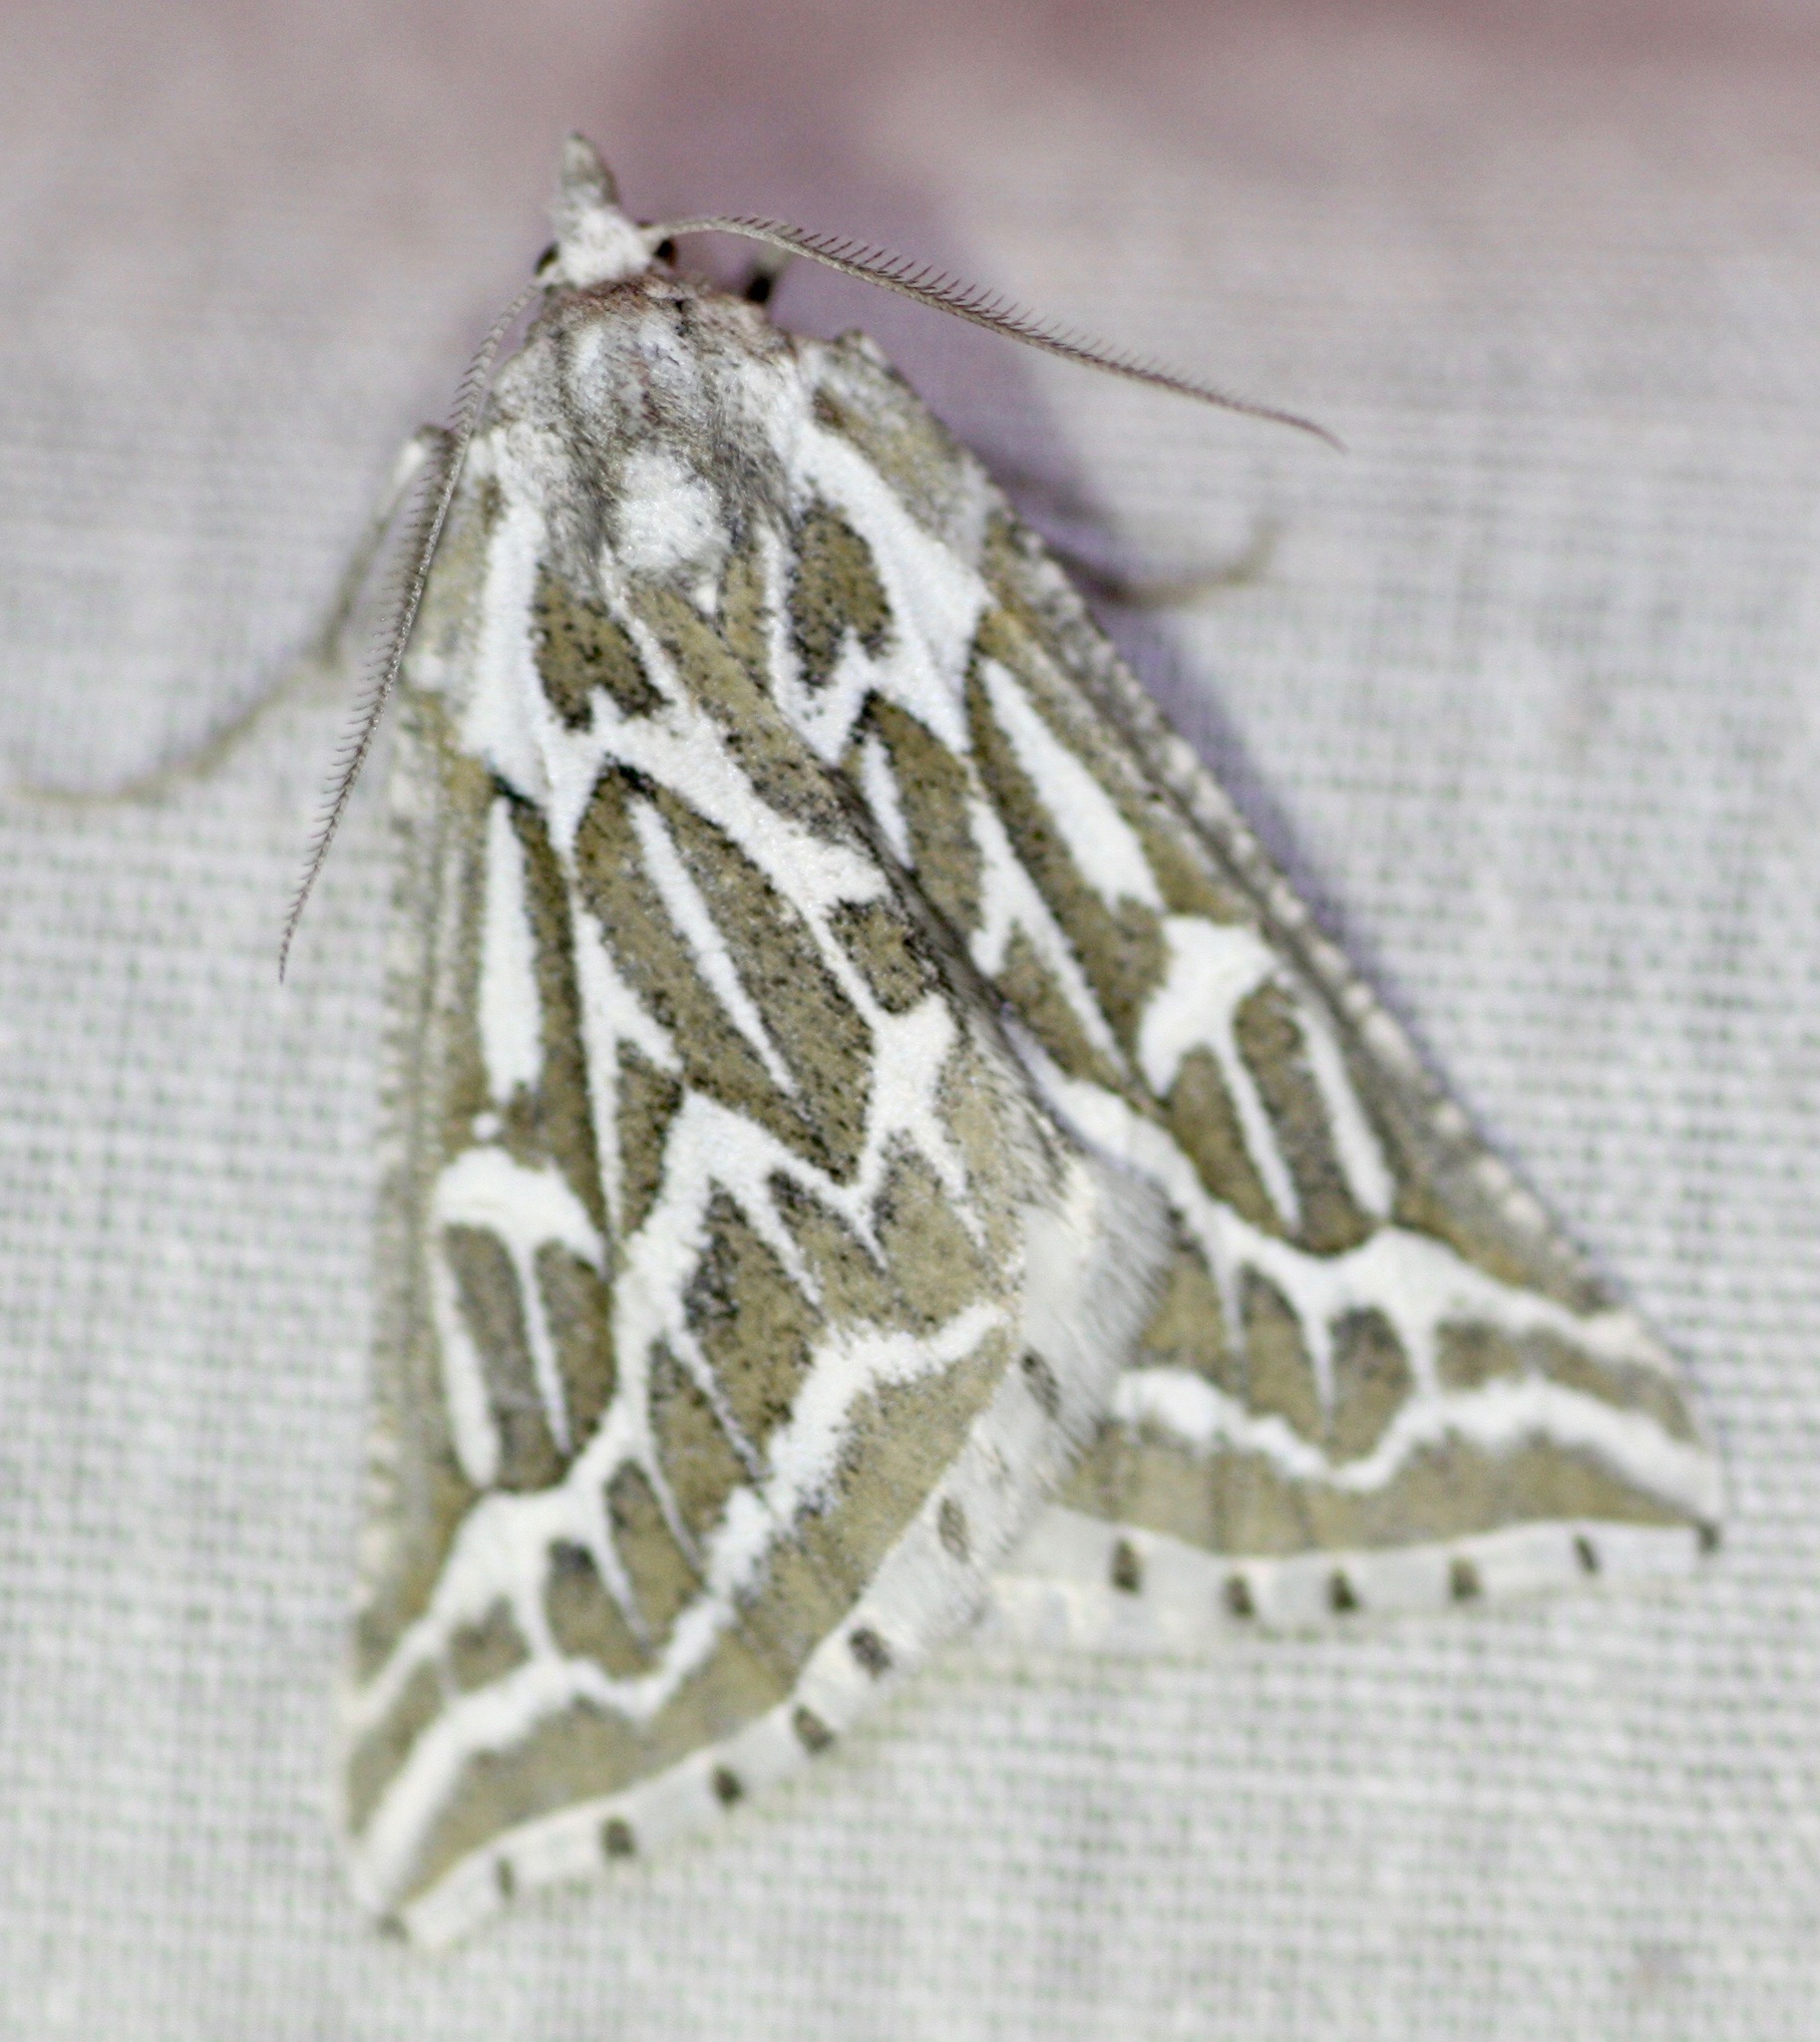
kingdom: Animalia
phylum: Arthropoda
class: Insecta
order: Lepidoptera
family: Geometridae
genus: Plataea
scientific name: Plataea trilinearia
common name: Sagebrush girdle moth
